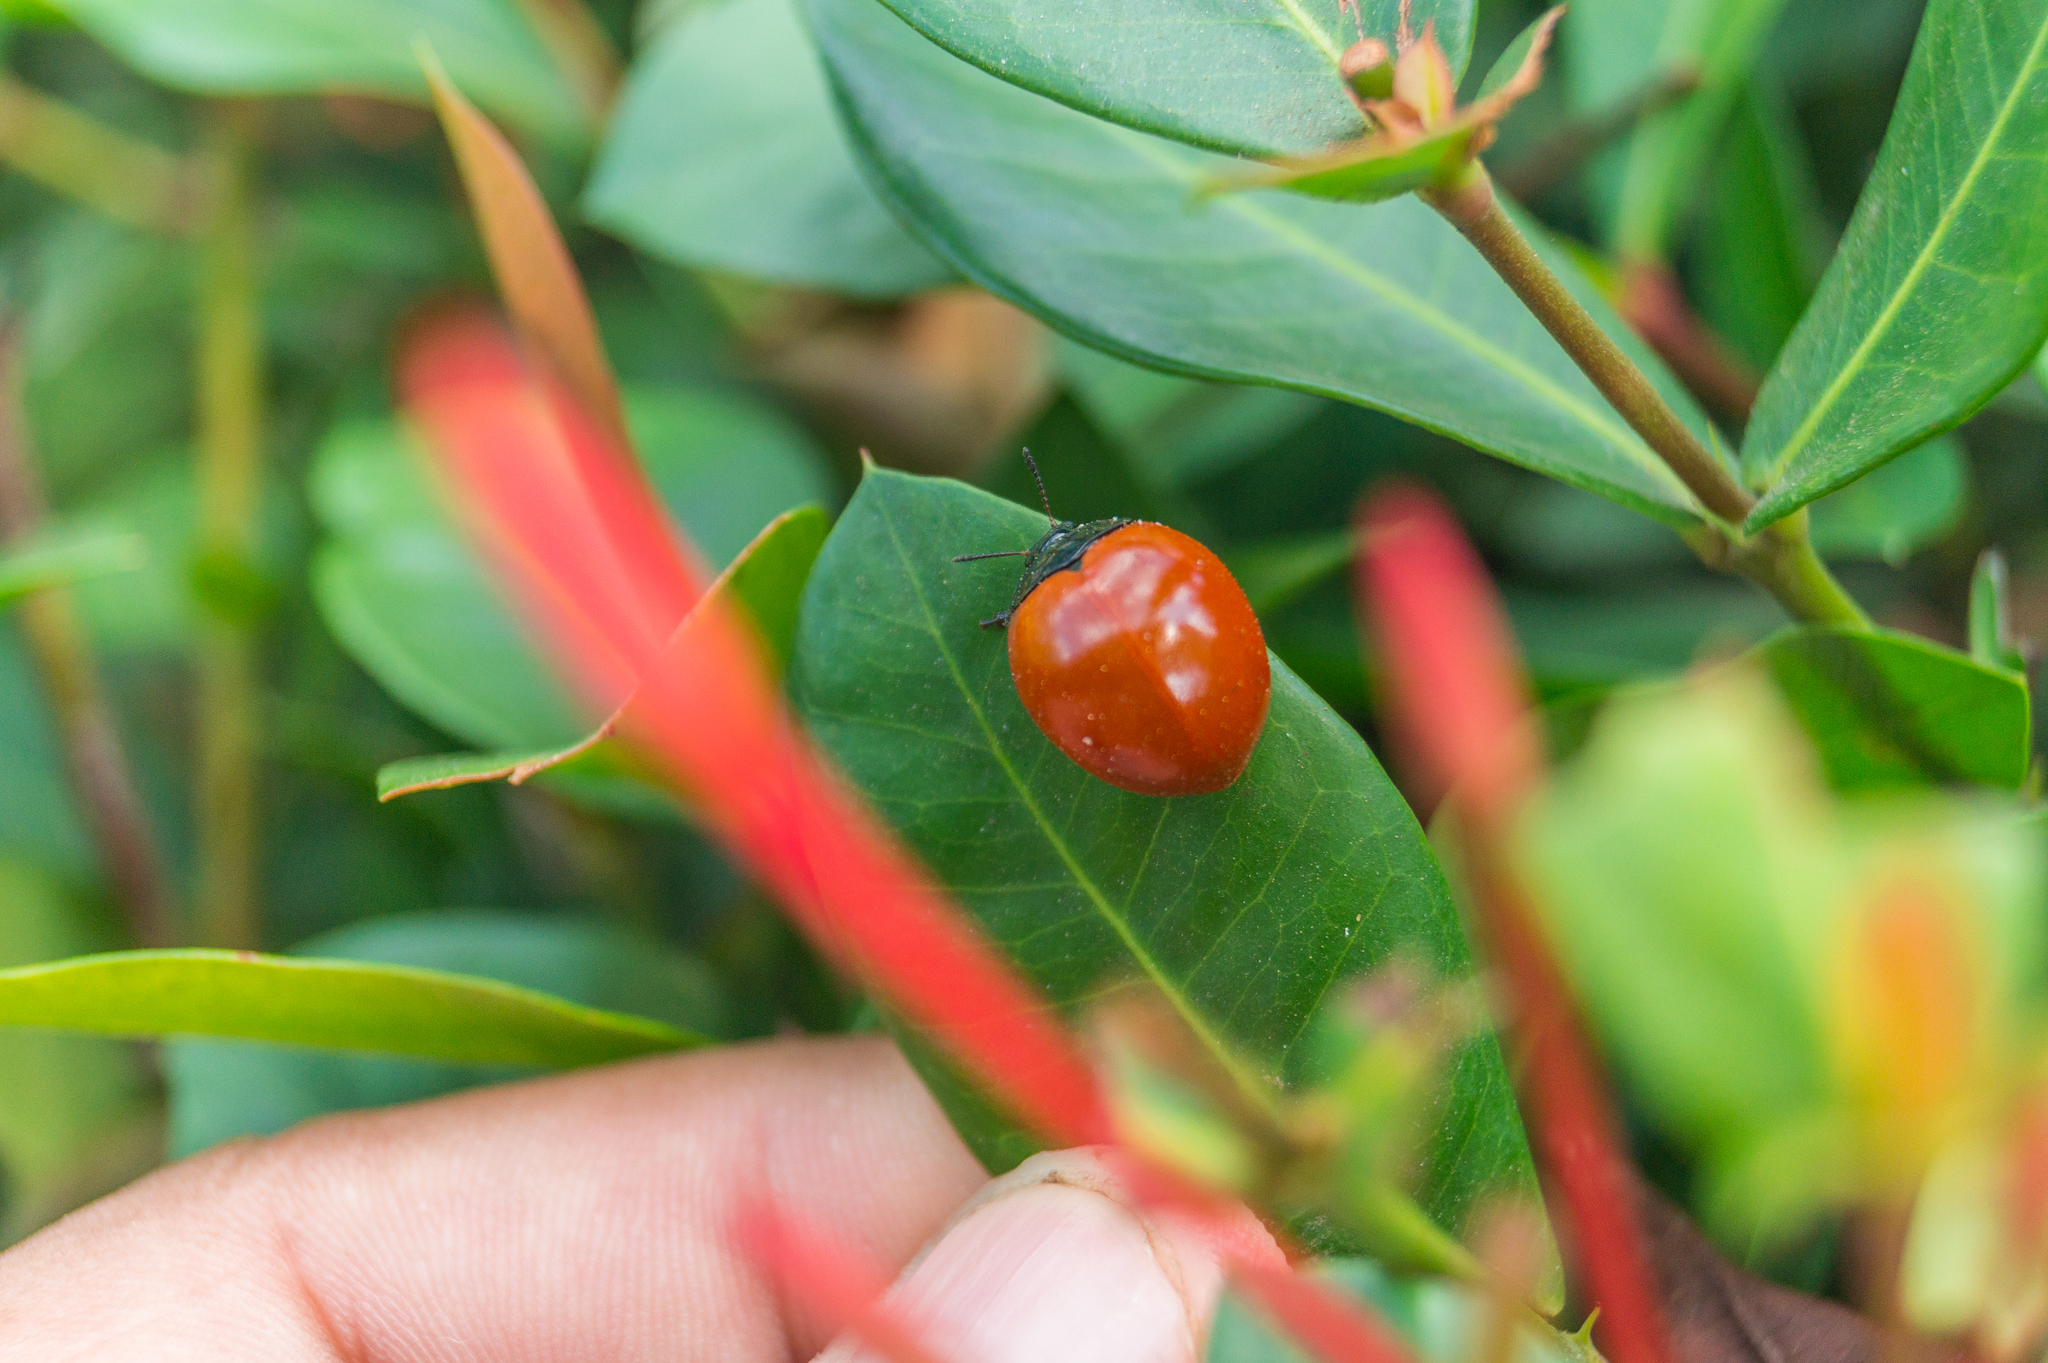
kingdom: Animalia
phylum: Arthropoda
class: Insecta
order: Coleoptera
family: Erotylidae
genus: Aegithus
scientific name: Aegithus
